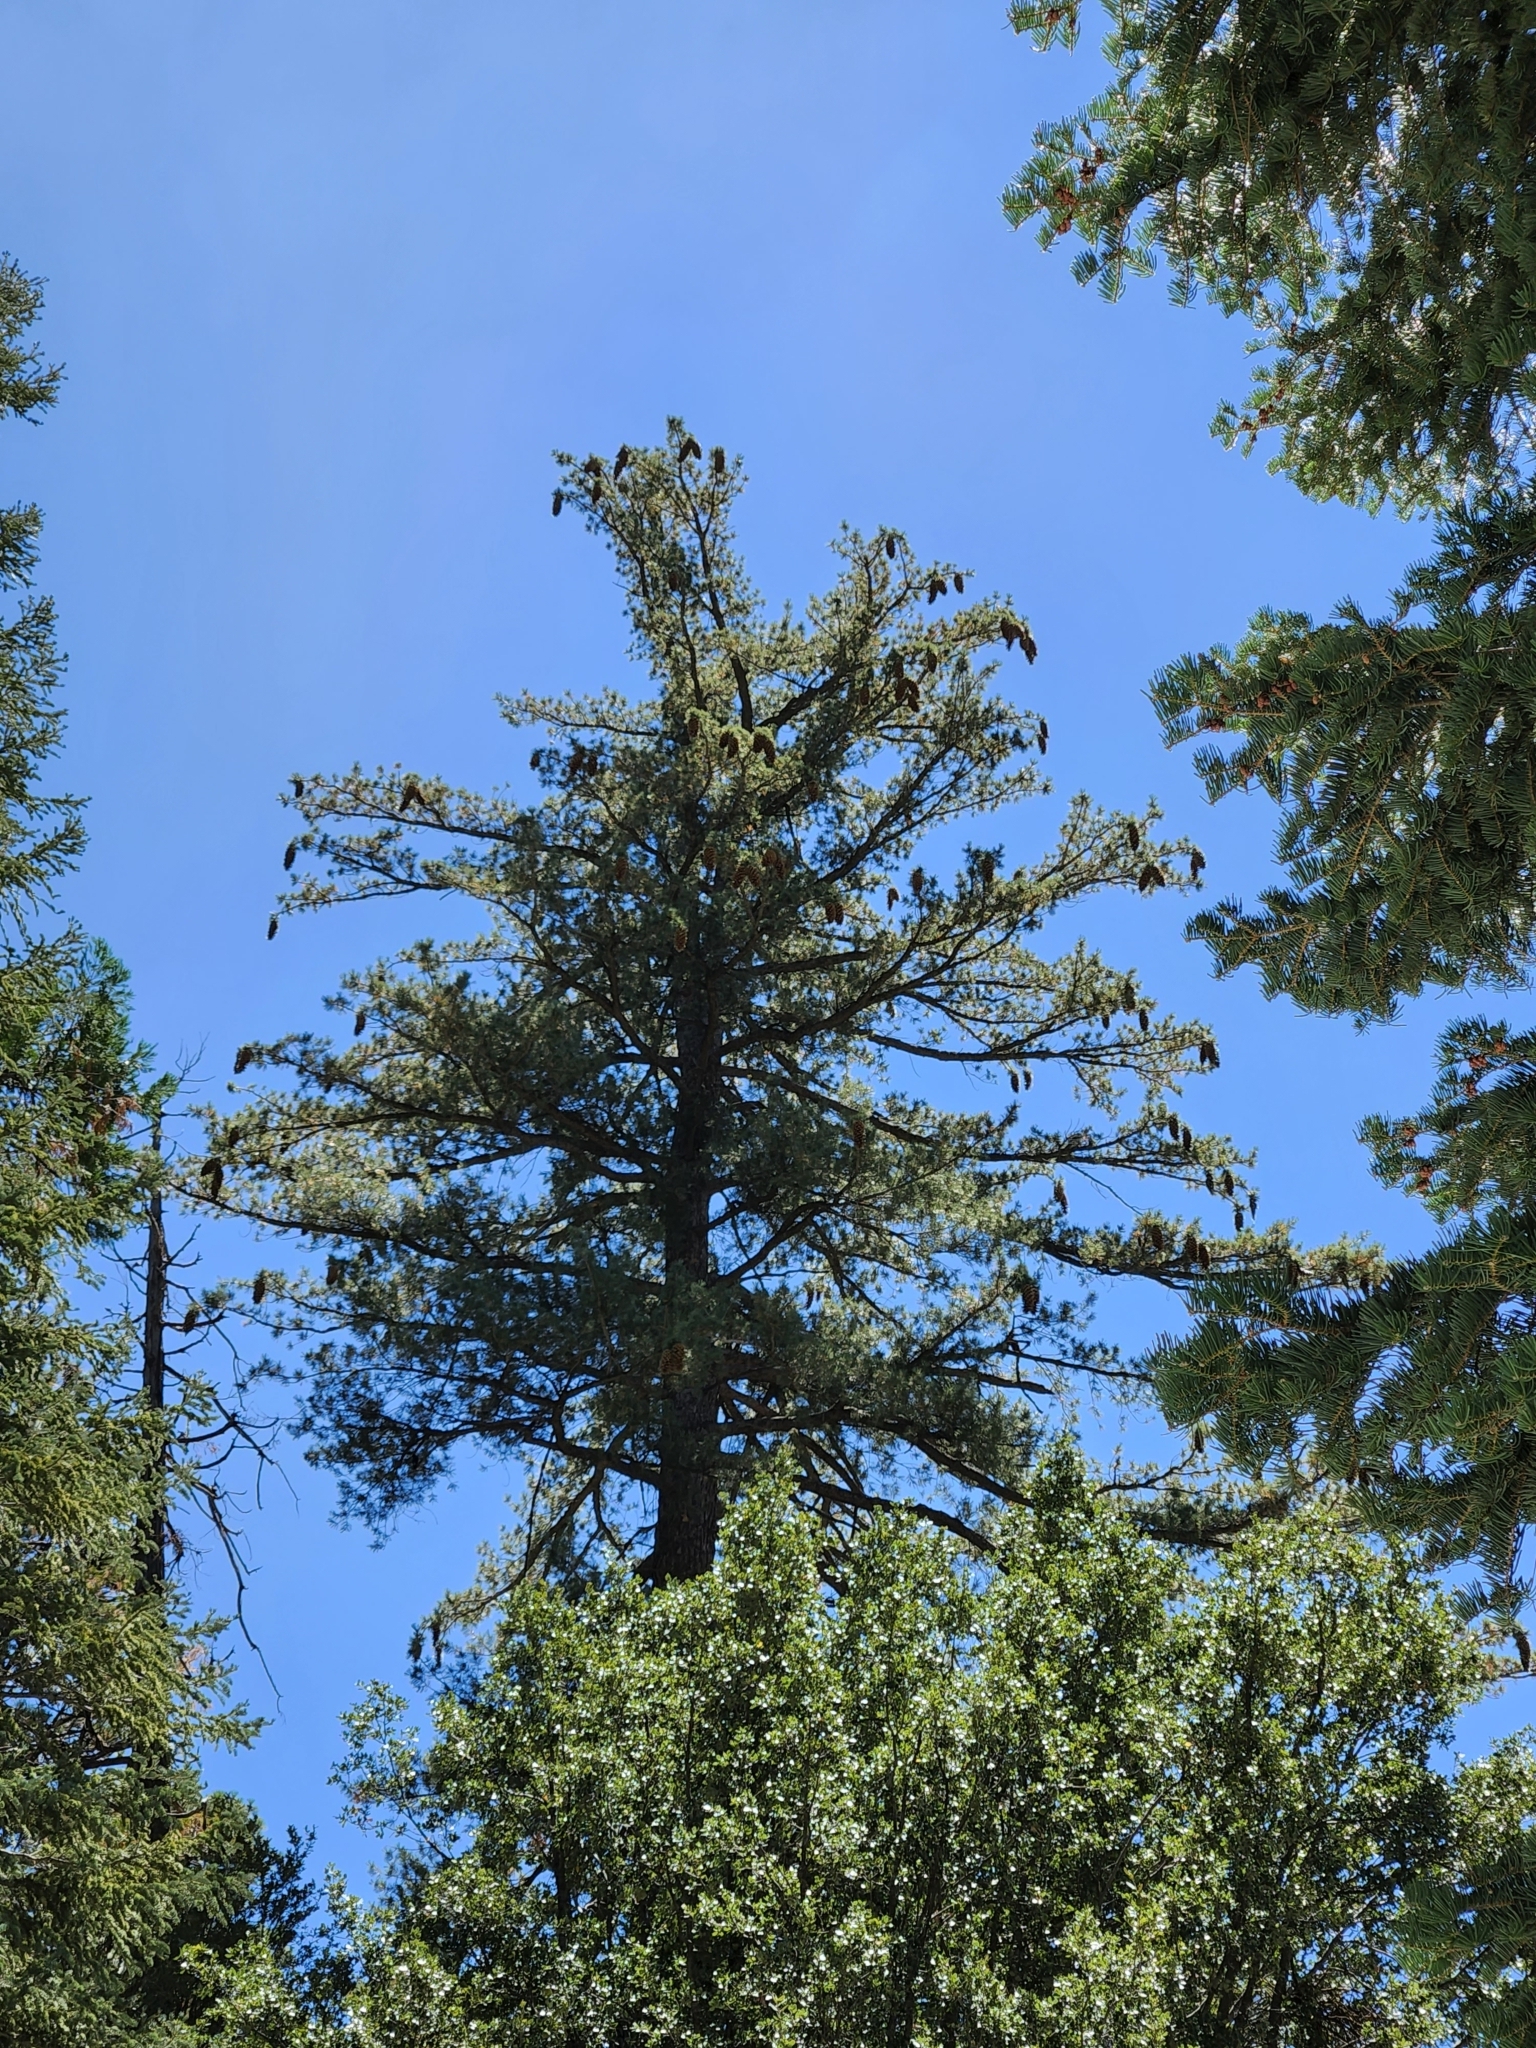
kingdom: Plantae
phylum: Tracheophyta
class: Pinopsida
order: Pinales
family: Pinaceae
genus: Pinus
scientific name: Pinus lambertiana
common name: Sugar pine
